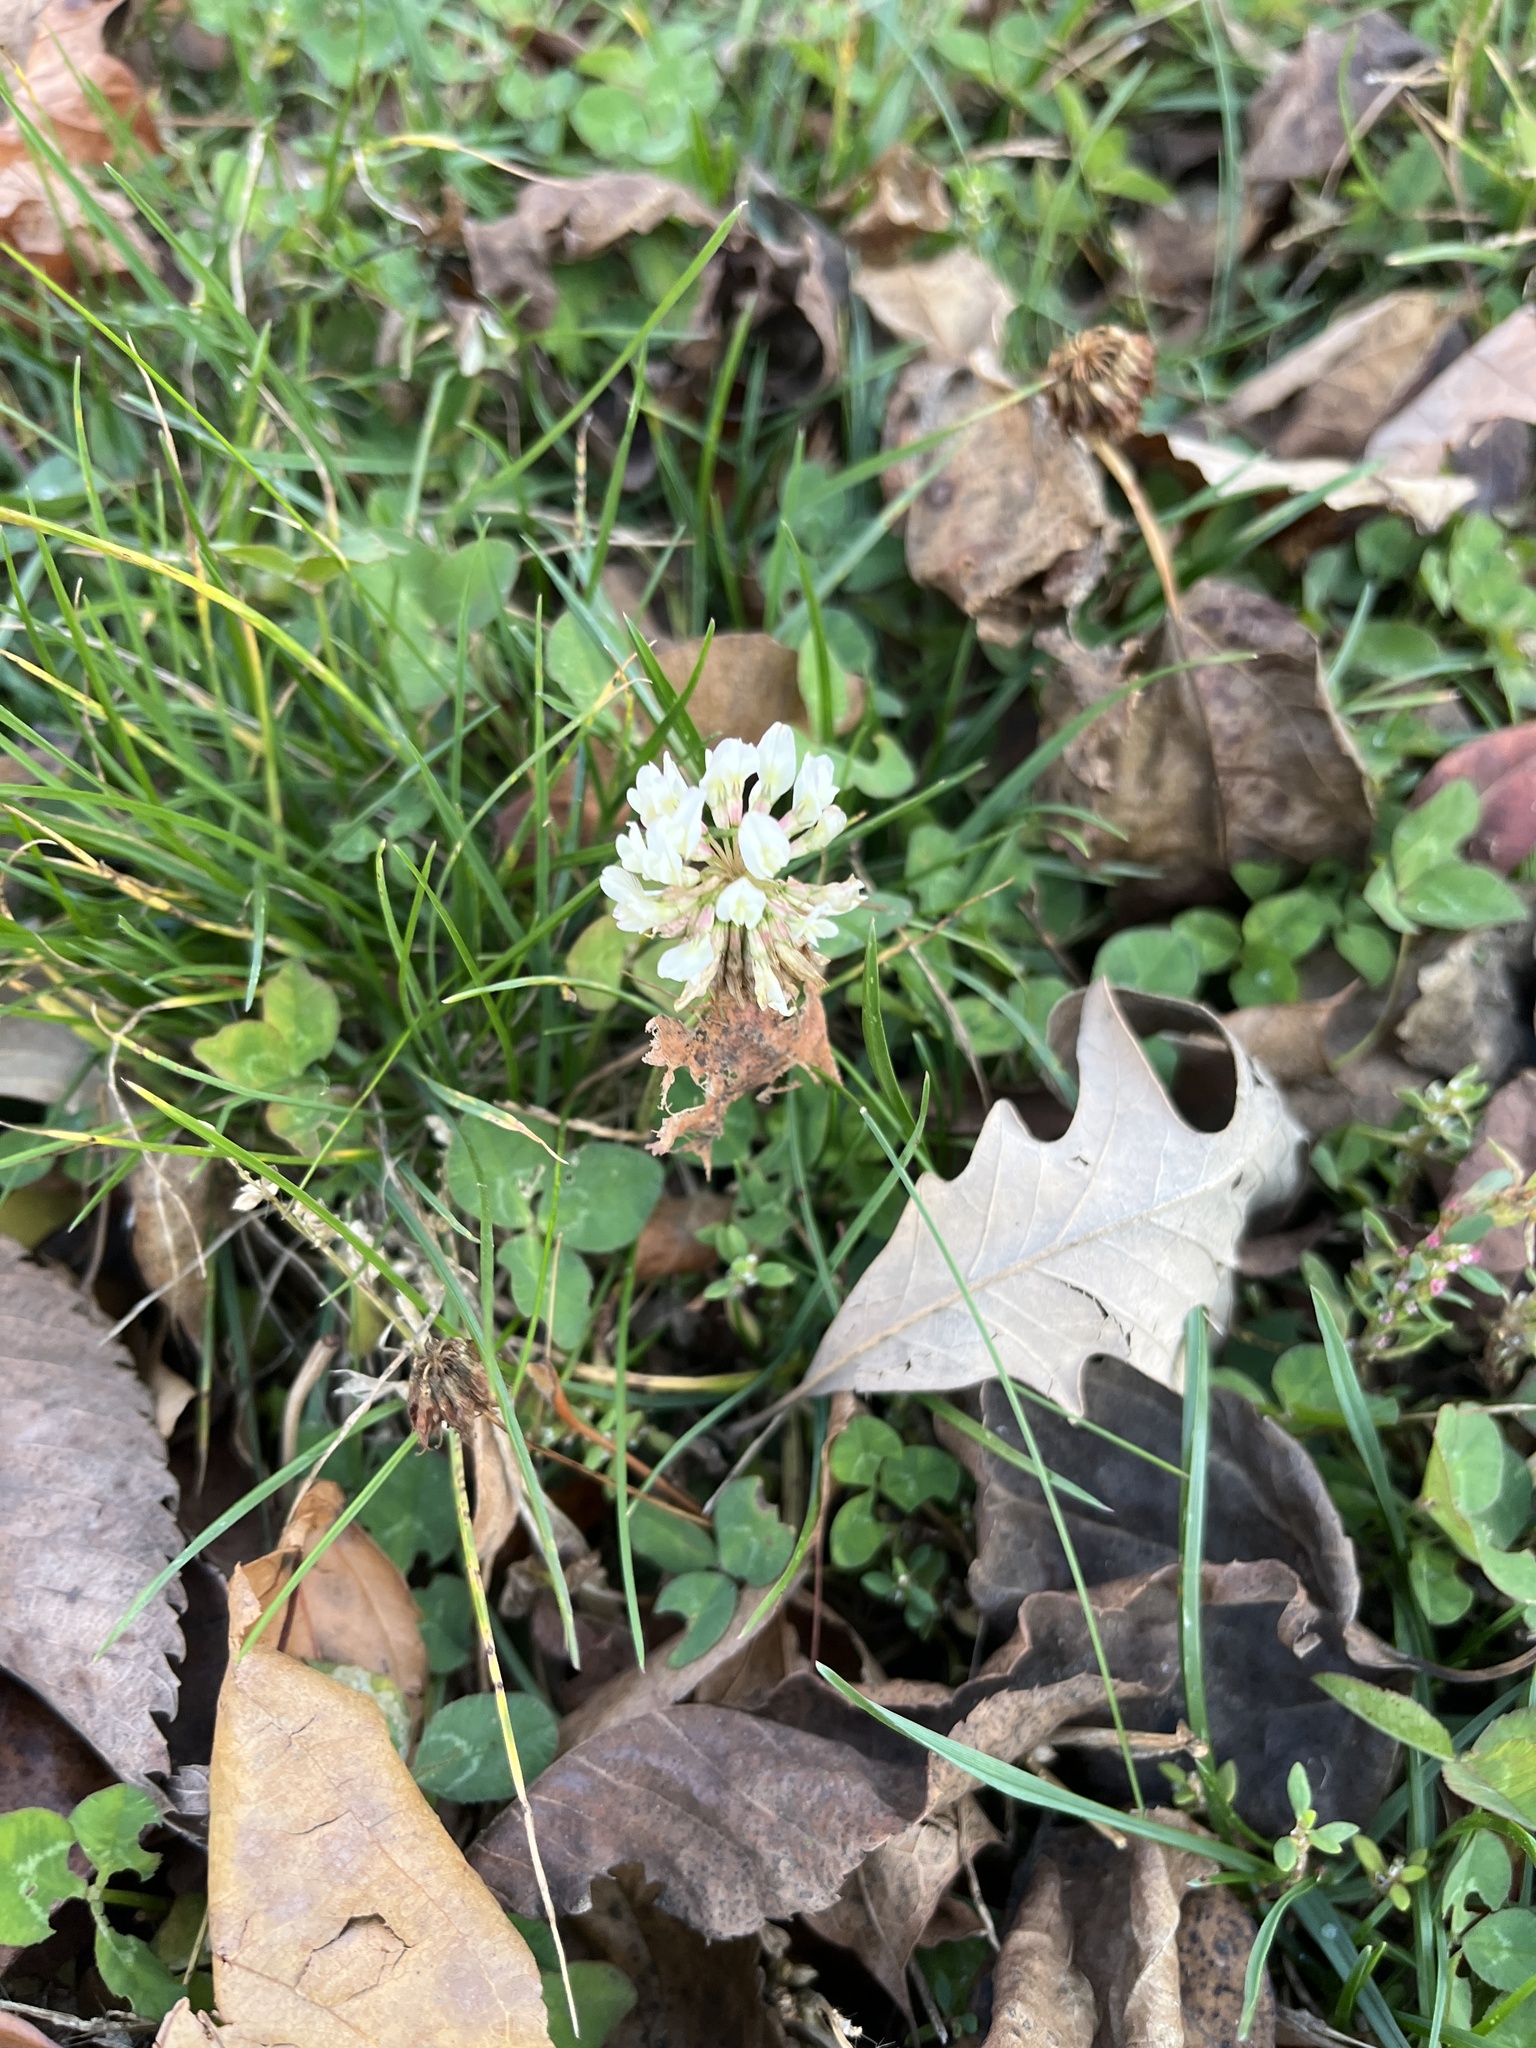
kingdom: Plantae
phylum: Tracheophyta
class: Magnoliopsida
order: Fabales
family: Fabaceae
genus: Trifolium
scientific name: Trifolium repens
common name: White clover
